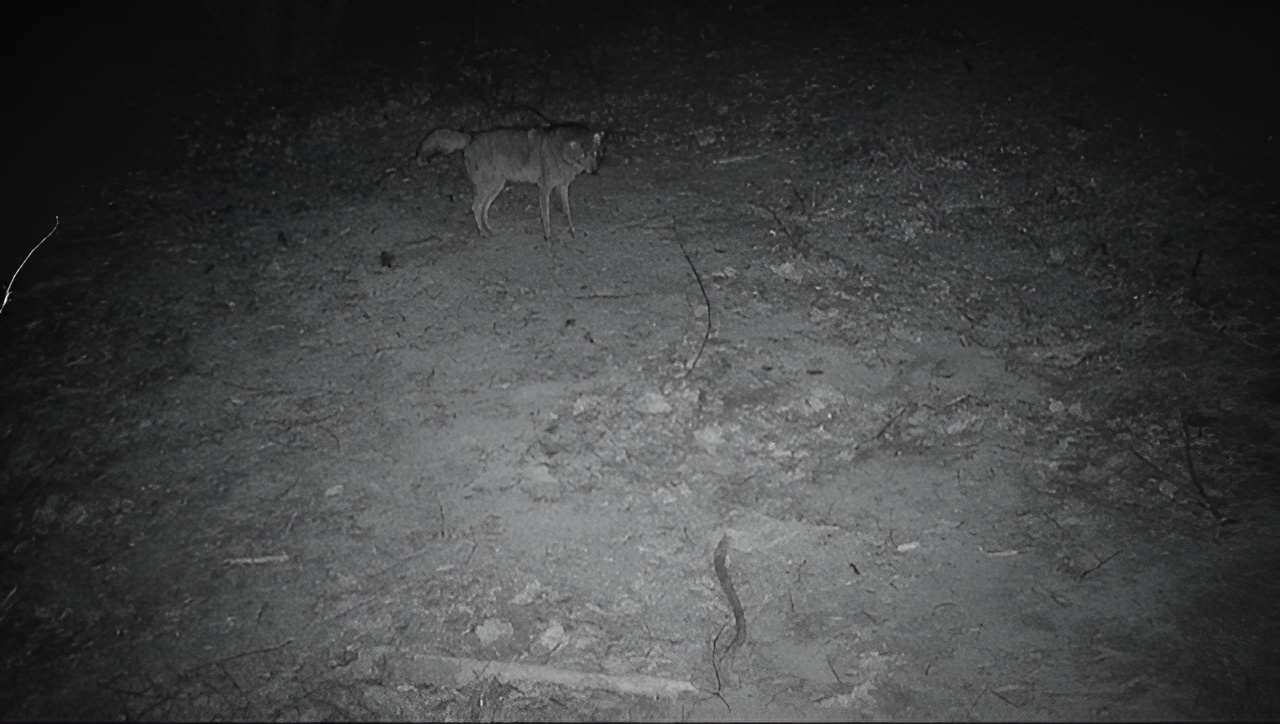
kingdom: Animalia
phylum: Chordata
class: Mammalia
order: Carnivora
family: Canidae
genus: Canis
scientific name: Canis latrans
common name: Coyote
